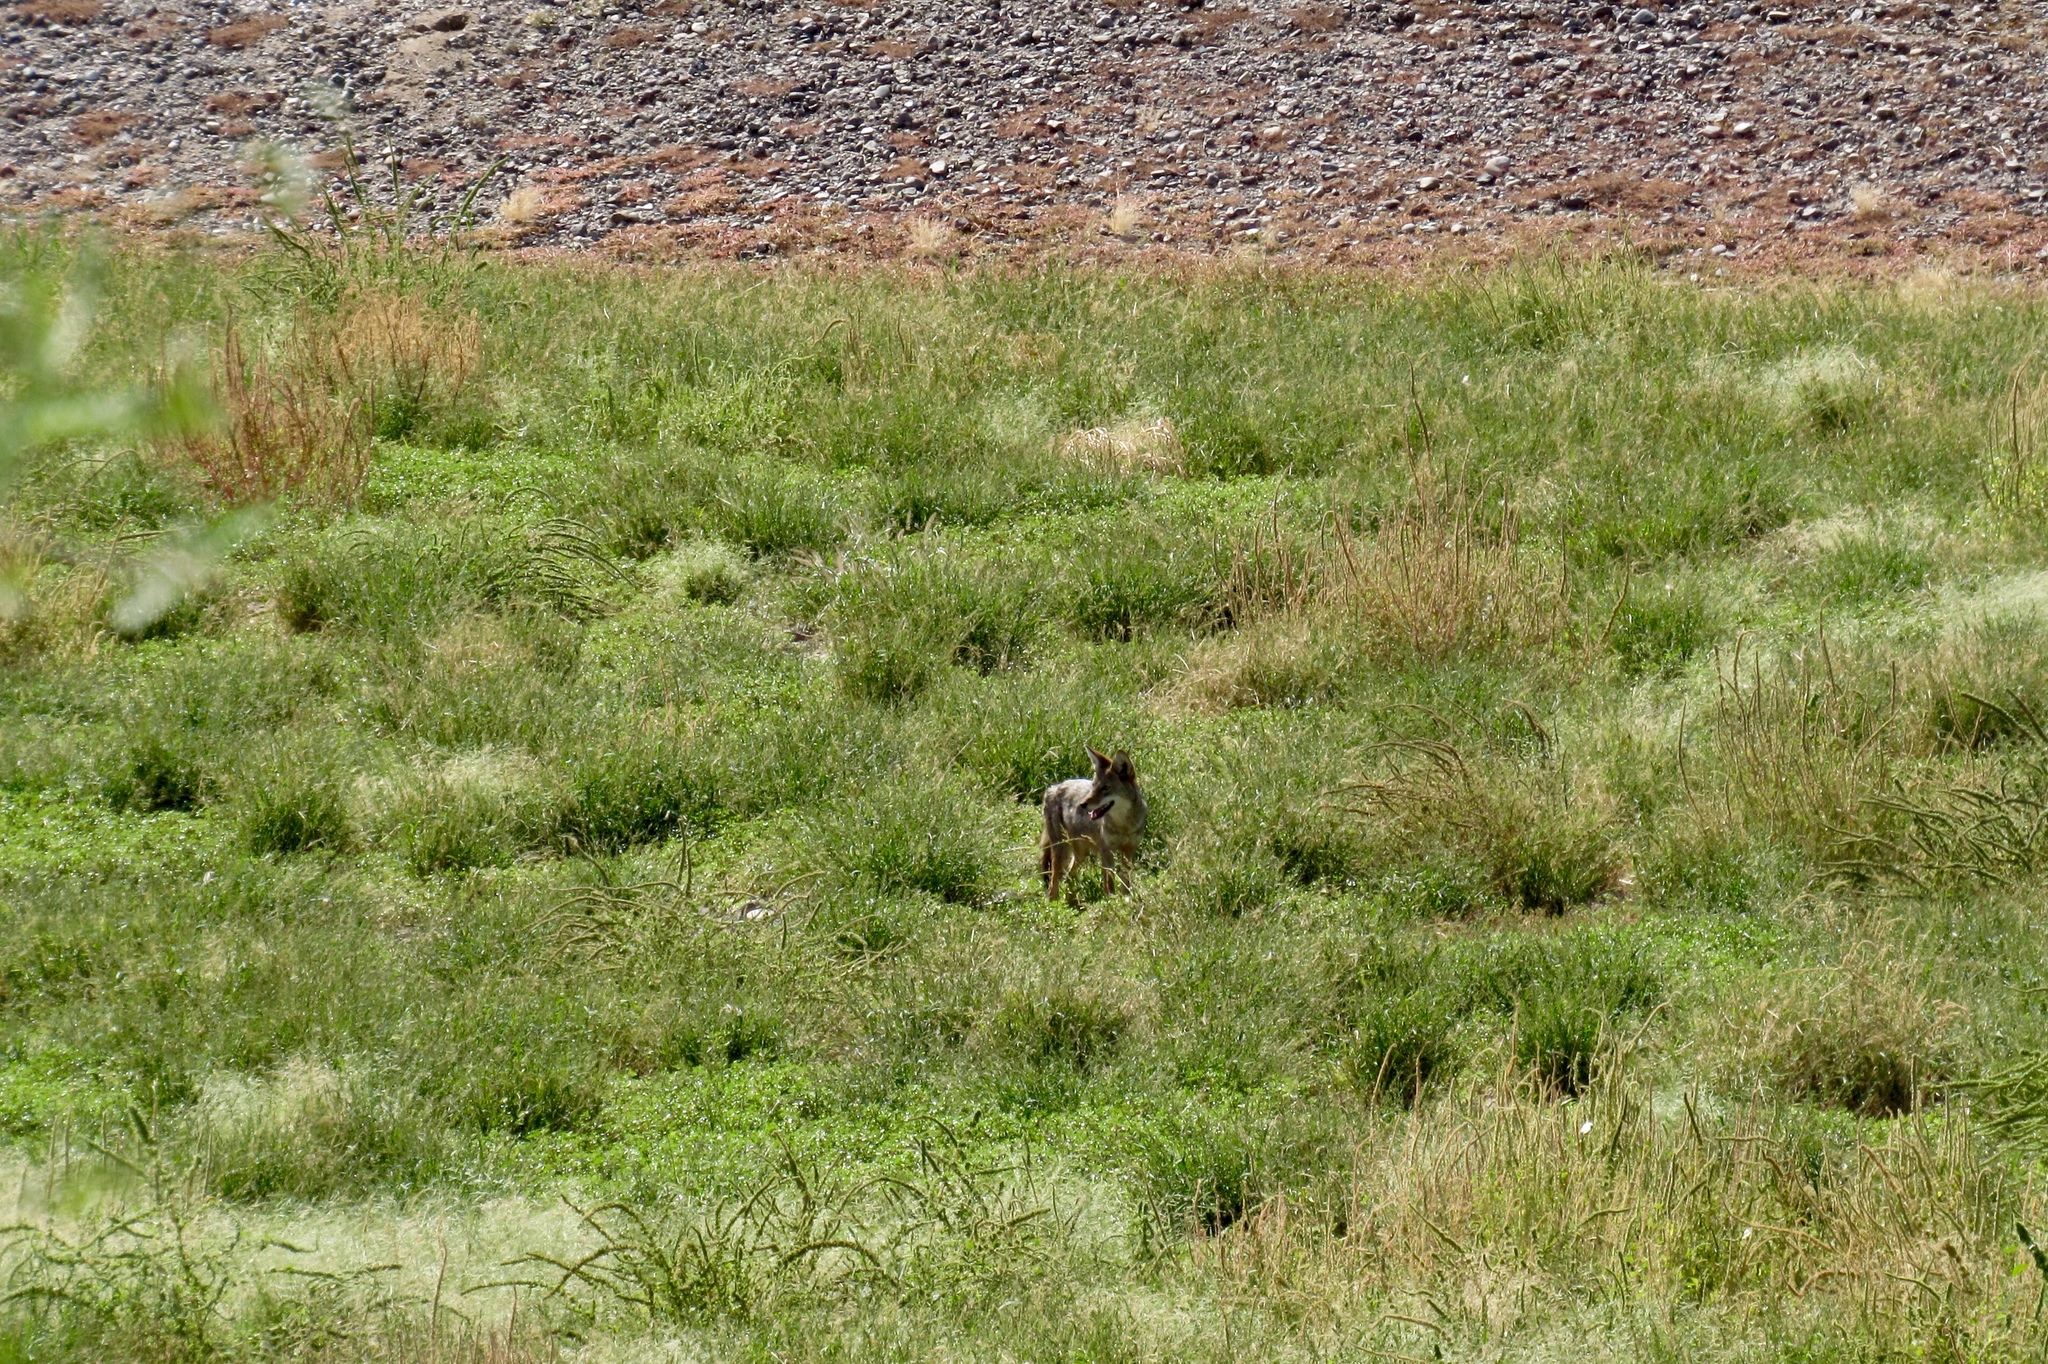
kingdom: Animalia
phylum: Chordata
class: Mammalia
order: Carnivora
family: Canidae
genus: Canis
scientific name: Canis latrans
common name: Coyote
